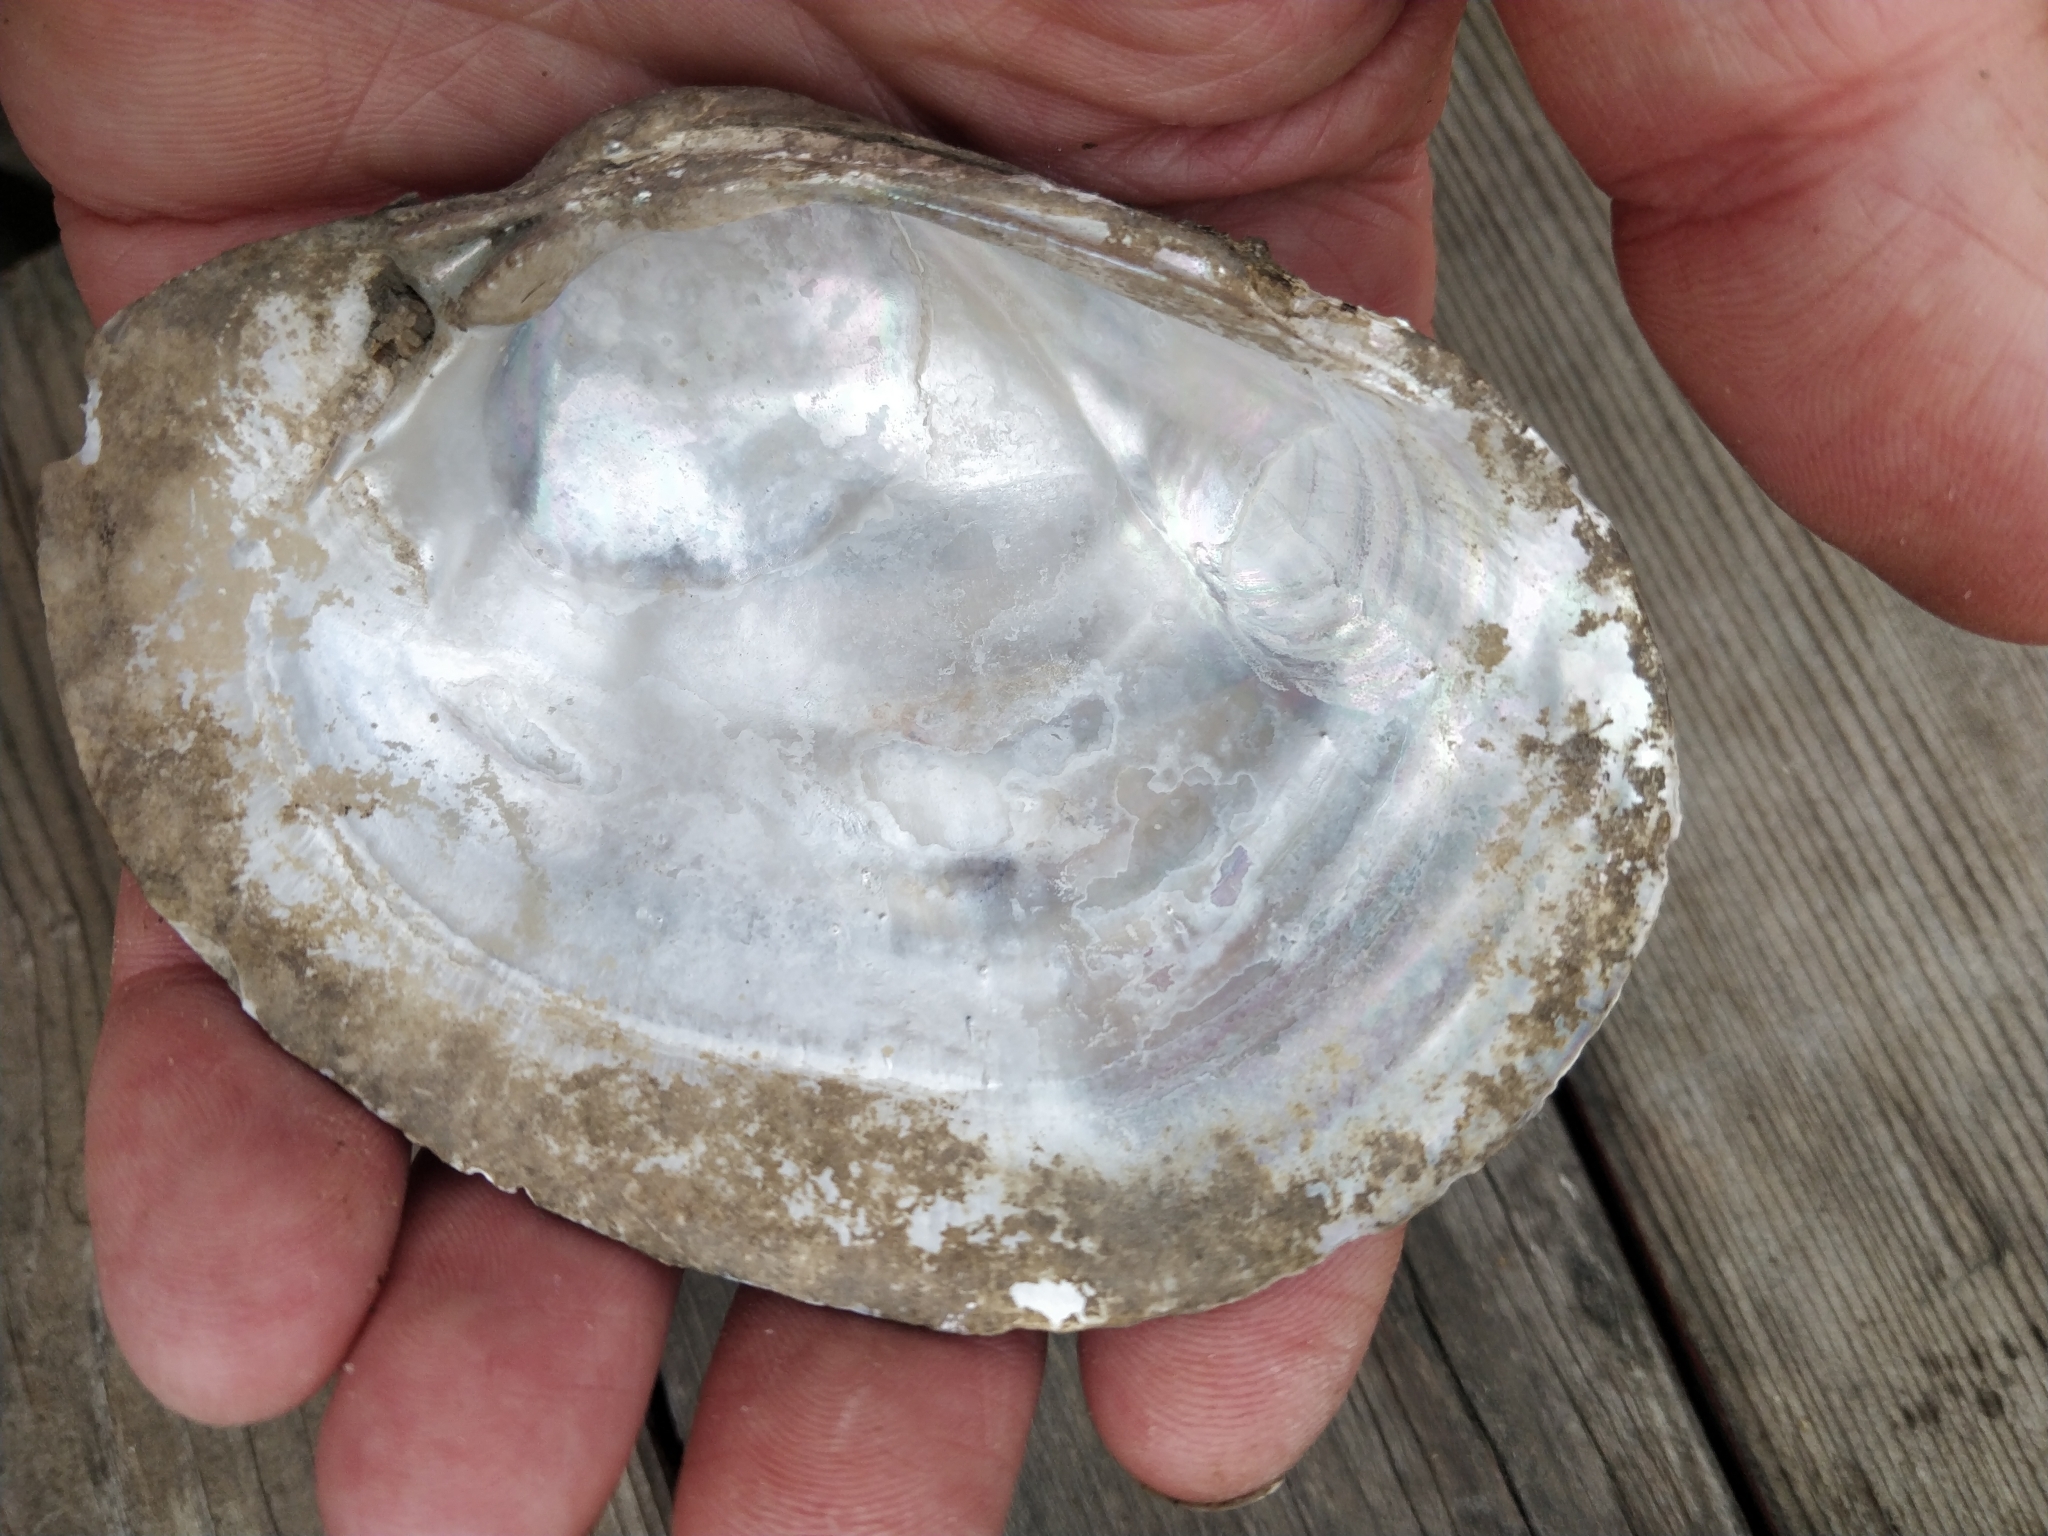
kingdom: Animalia
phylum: Mollusca
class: Bivalvia
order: Unionida
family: Unionidae
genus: Lampsilis
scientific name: Lampsilis cardium
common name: Plain pocketbook
